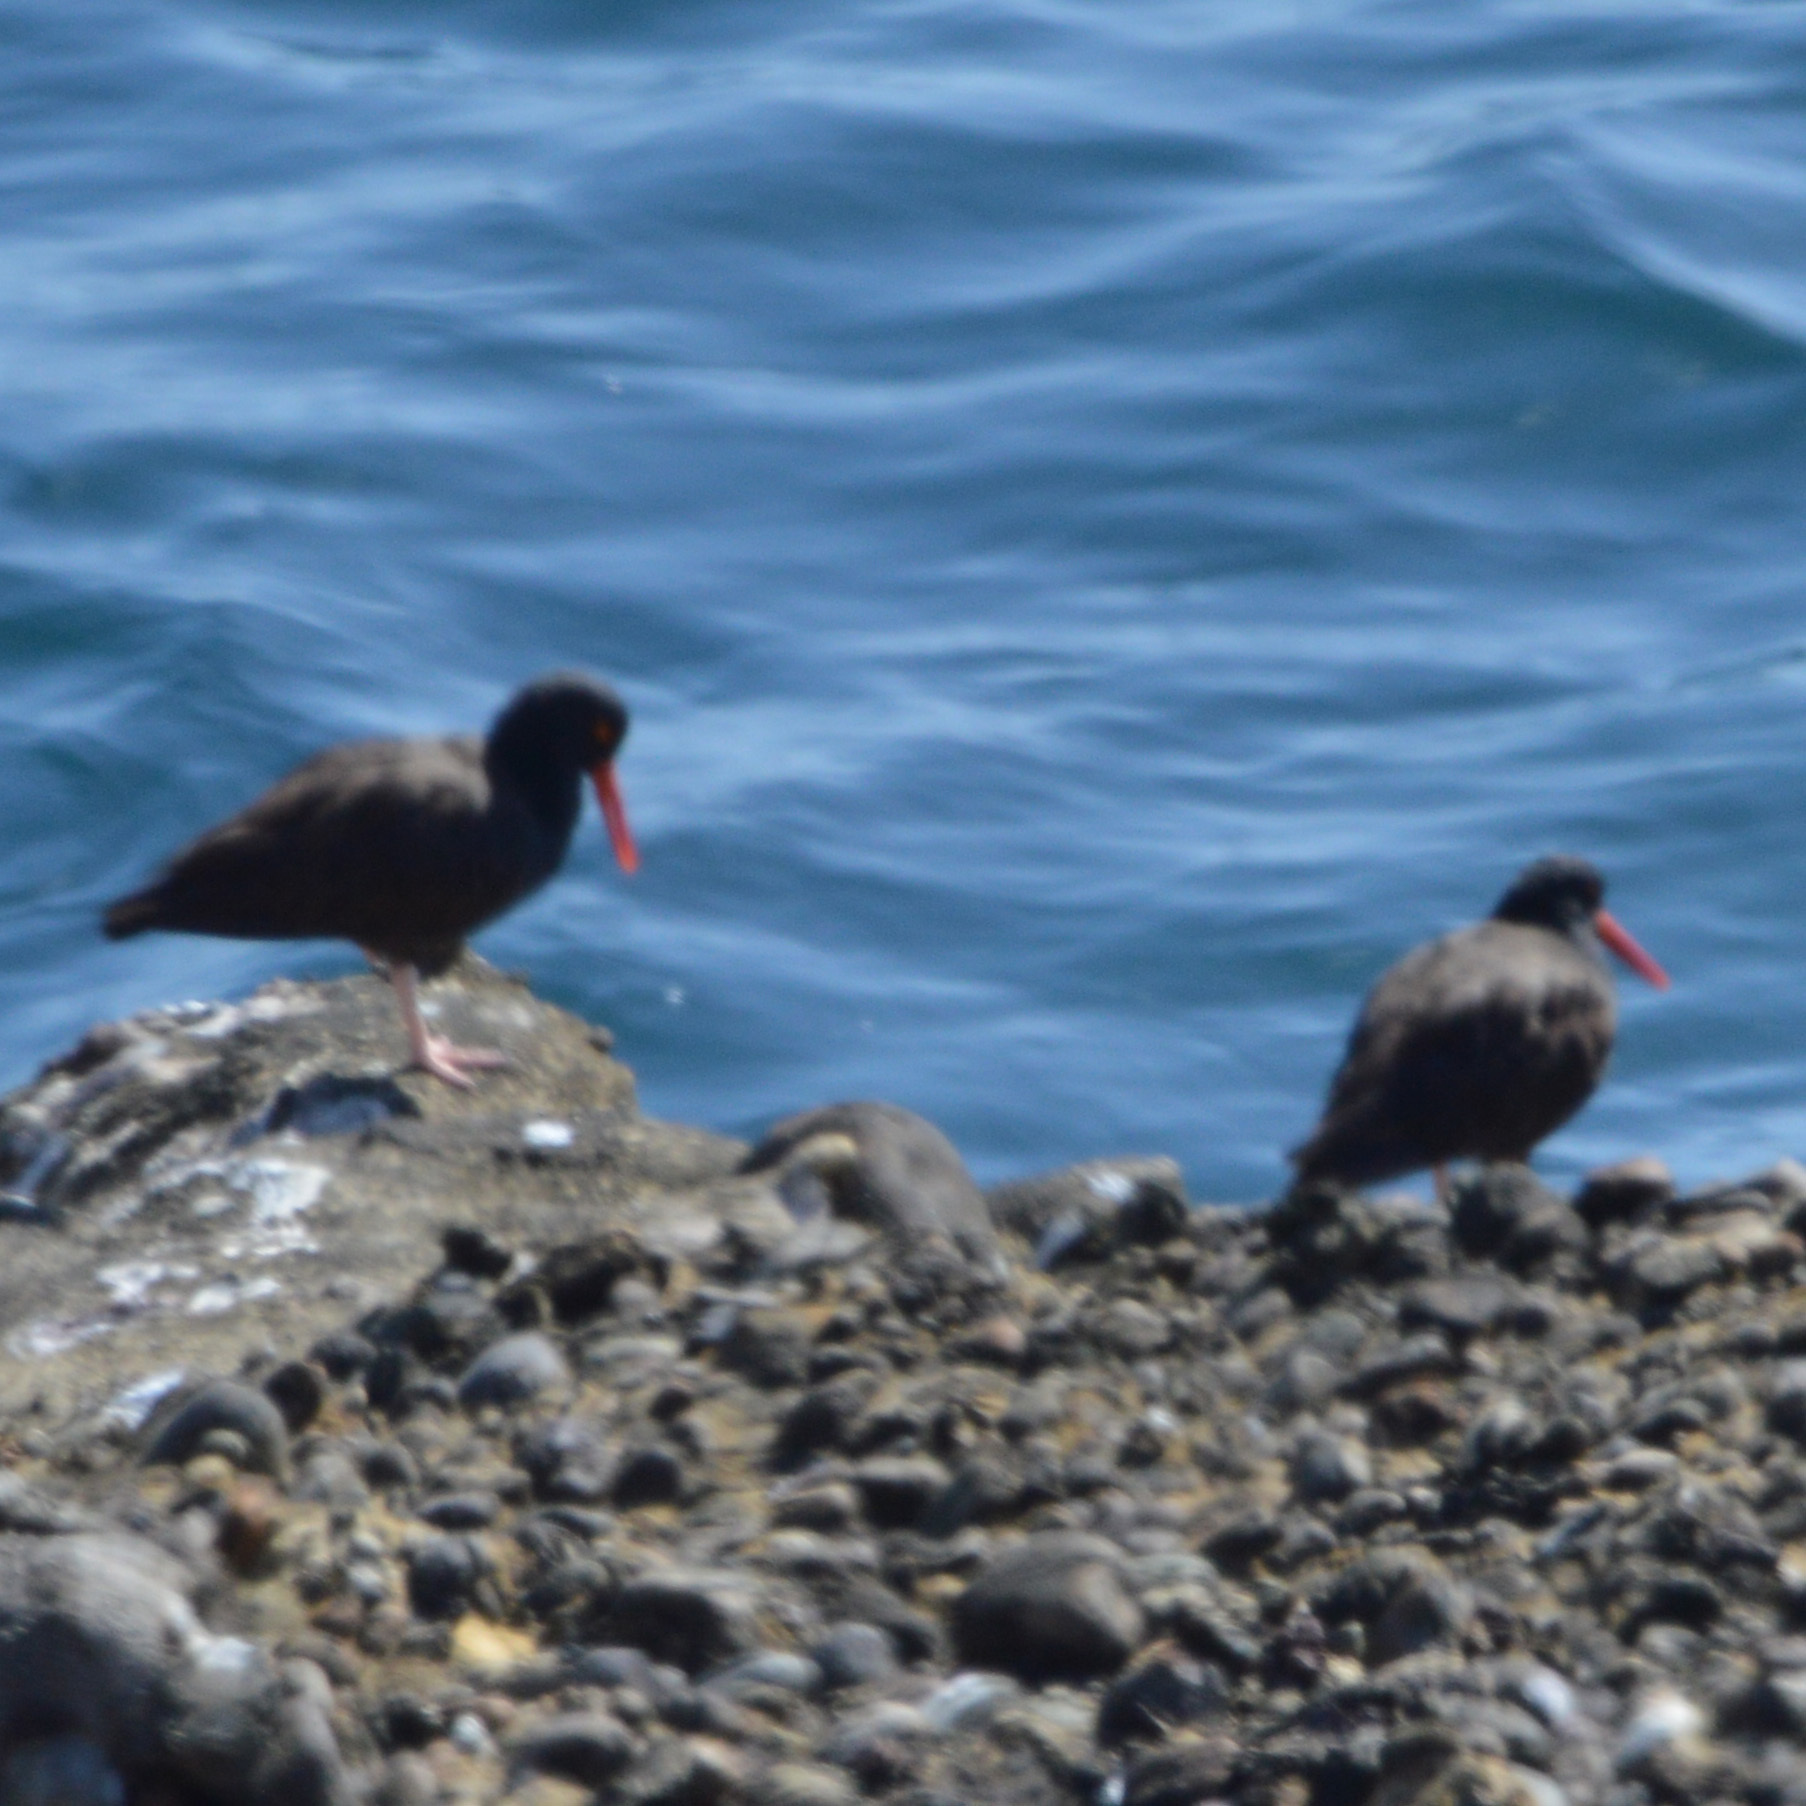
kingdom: Animalia
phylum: Chordata
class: Aves
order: Charadriiformes
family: Haematopodidae
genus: Haematopus
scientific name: Haematopus bachmani
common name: Black oystercatcher
